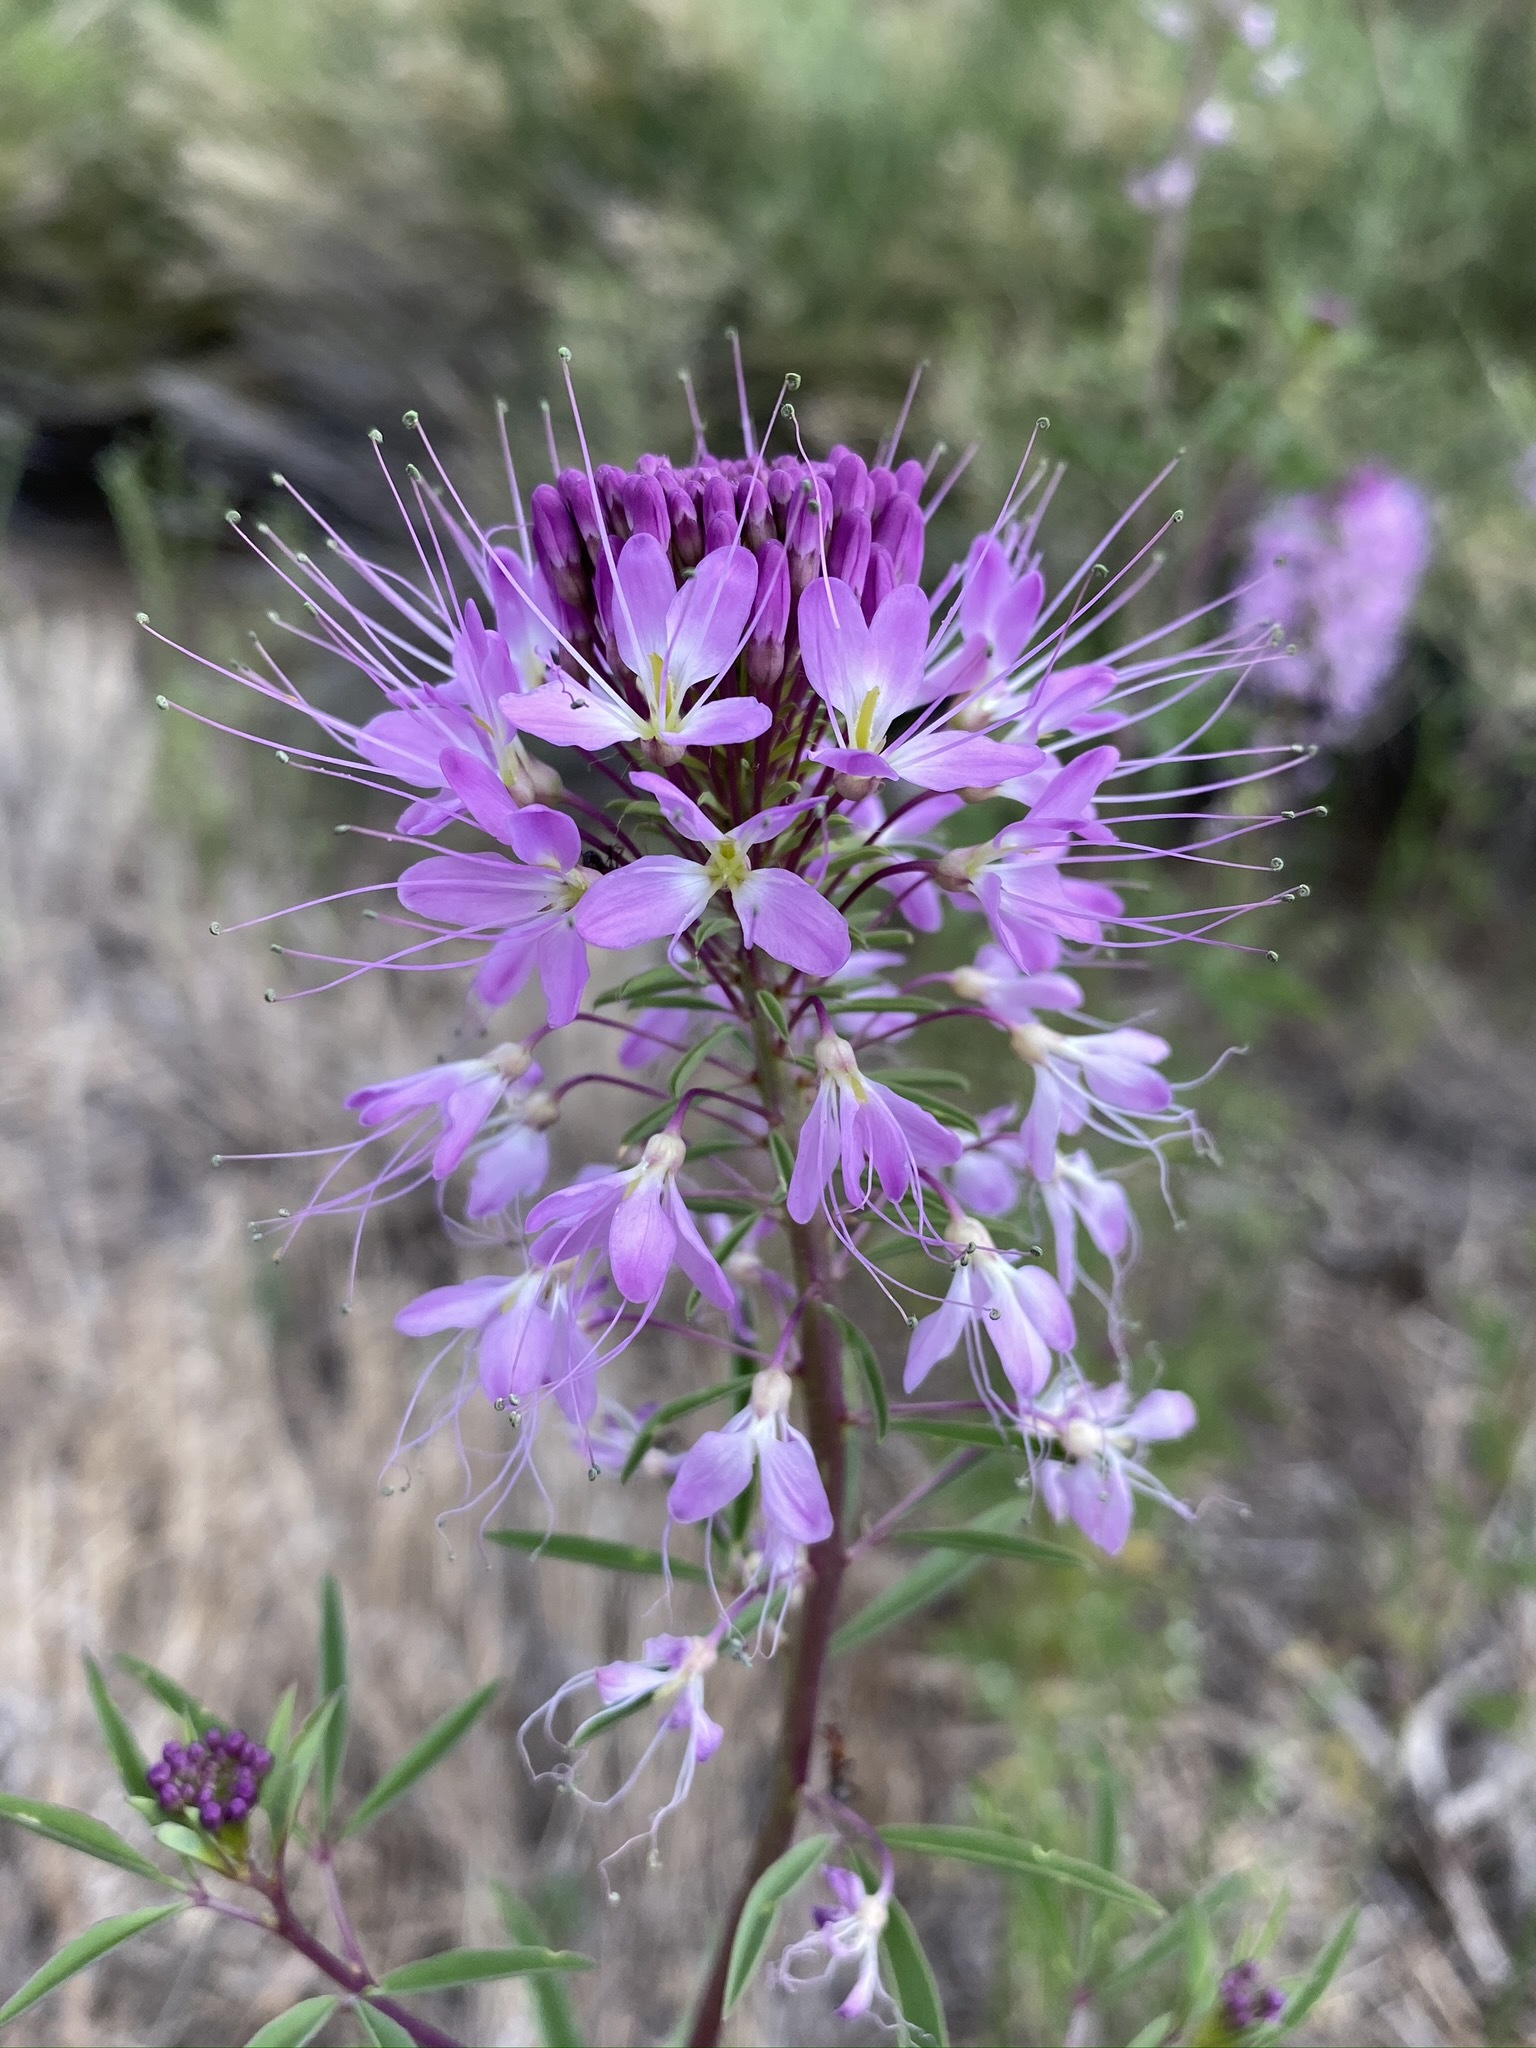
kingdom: Plantae
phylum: Tracheophyta
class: Magnoliopsida
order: Brassicales
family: Cleomaceae
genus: Cleomella
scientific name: Cleomella serrulata
